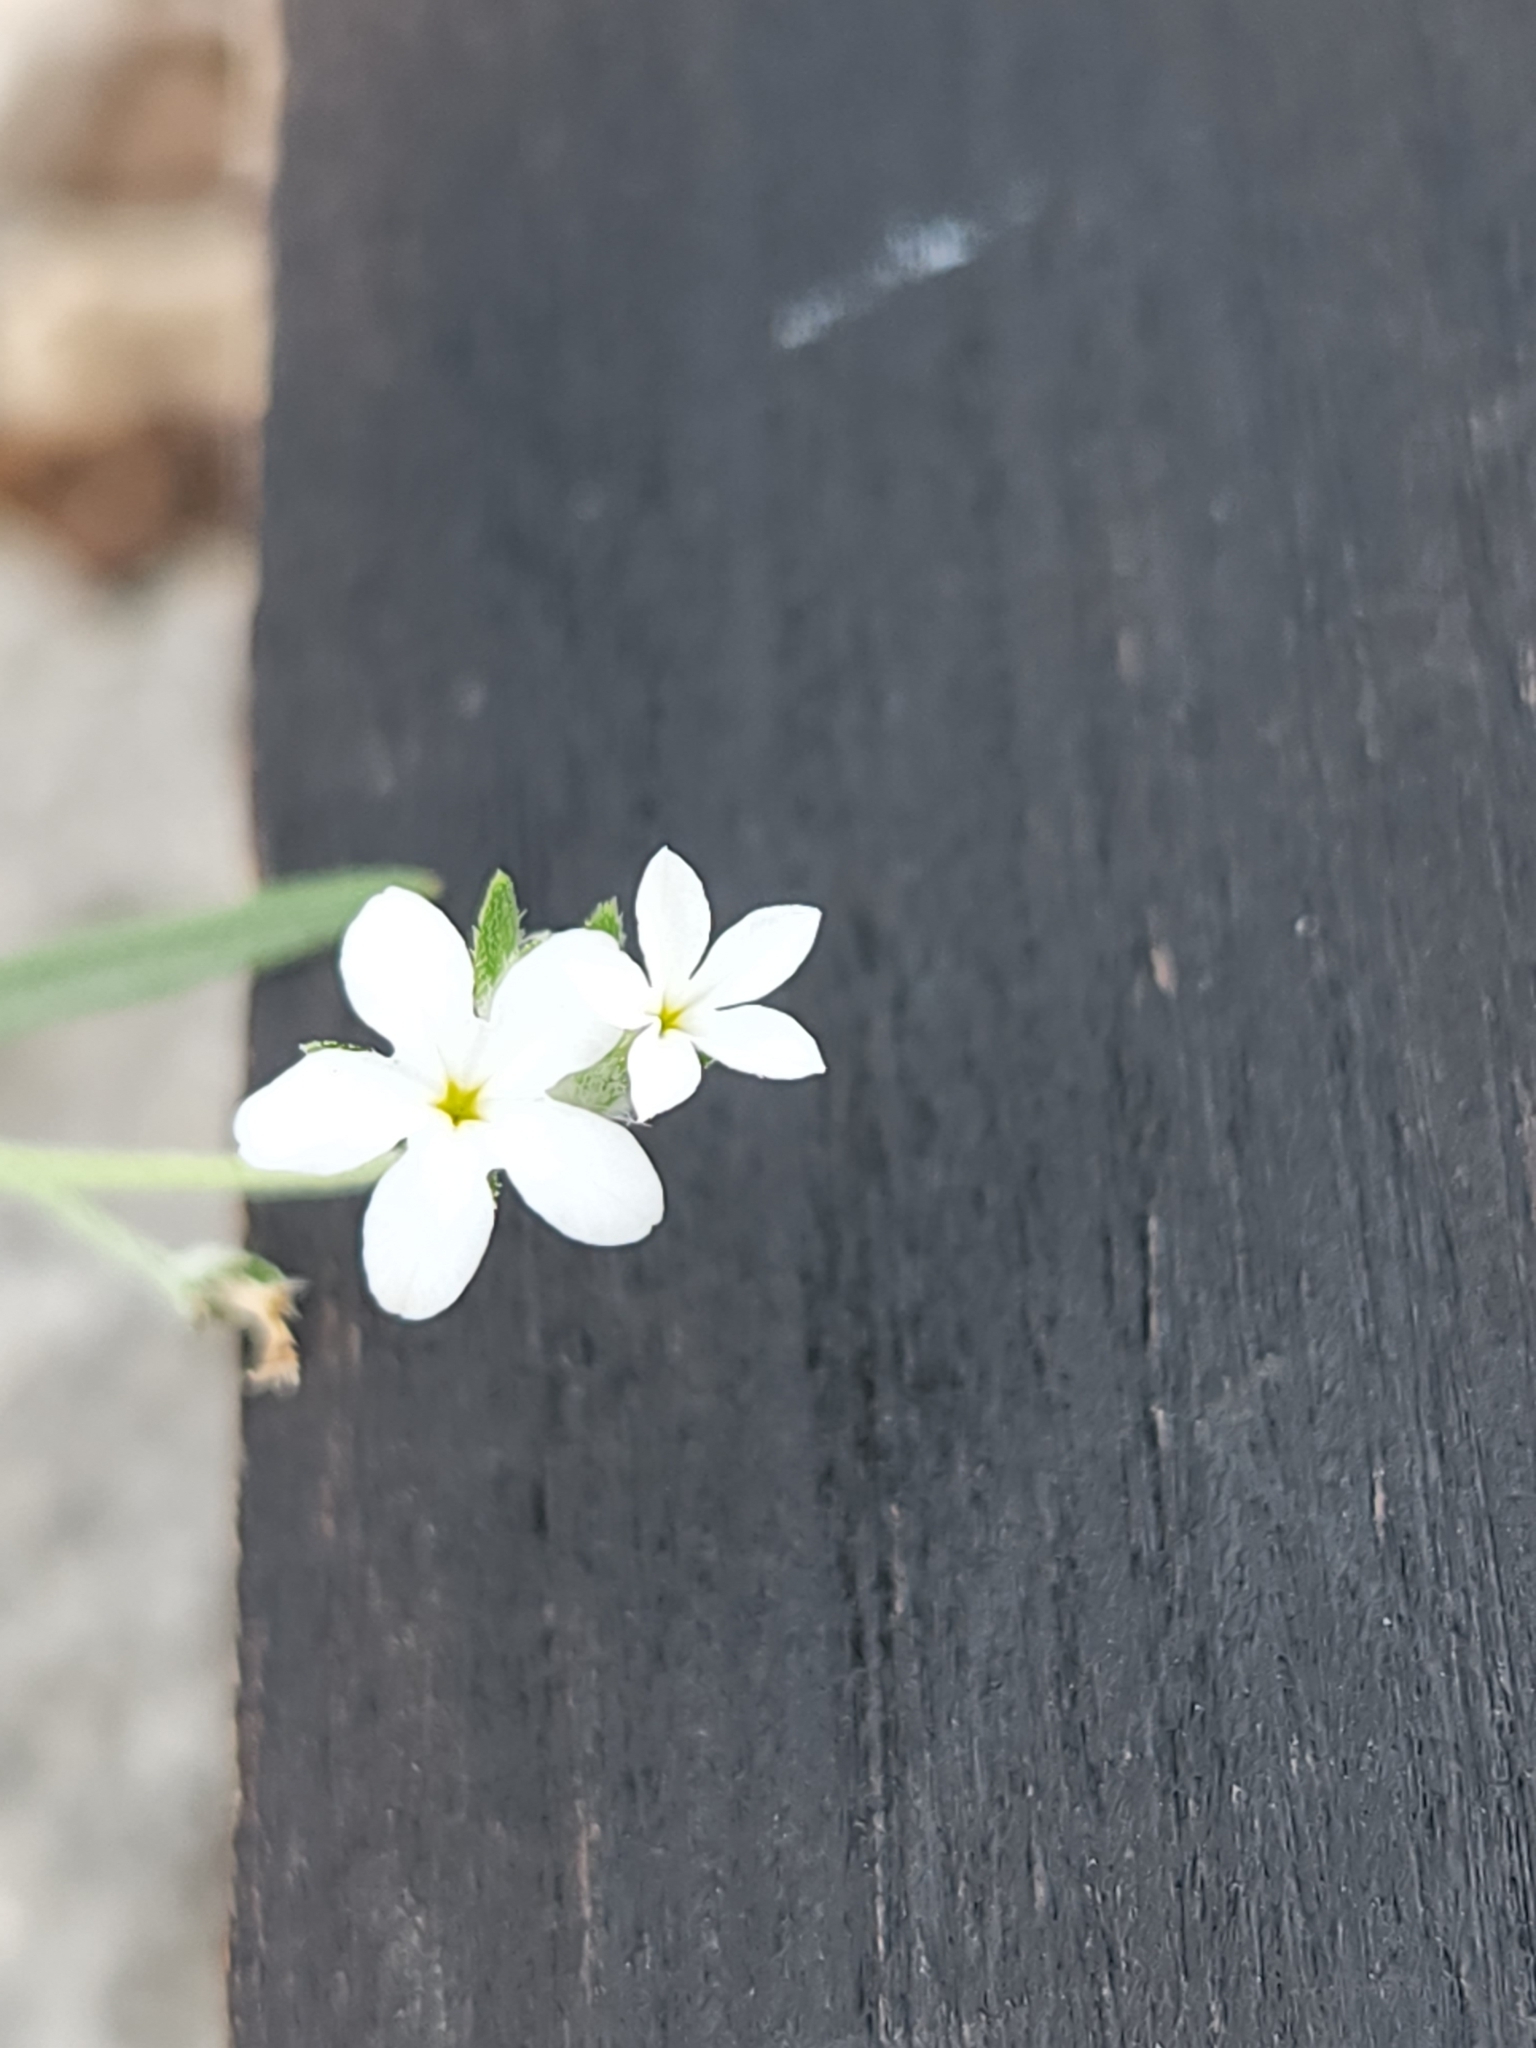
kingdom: Plantae
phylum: Tracheophyta
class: Magnoliopsida
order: Boraginales
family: Heliotropiaceae
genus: Euploca
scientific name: Euploca tenella
